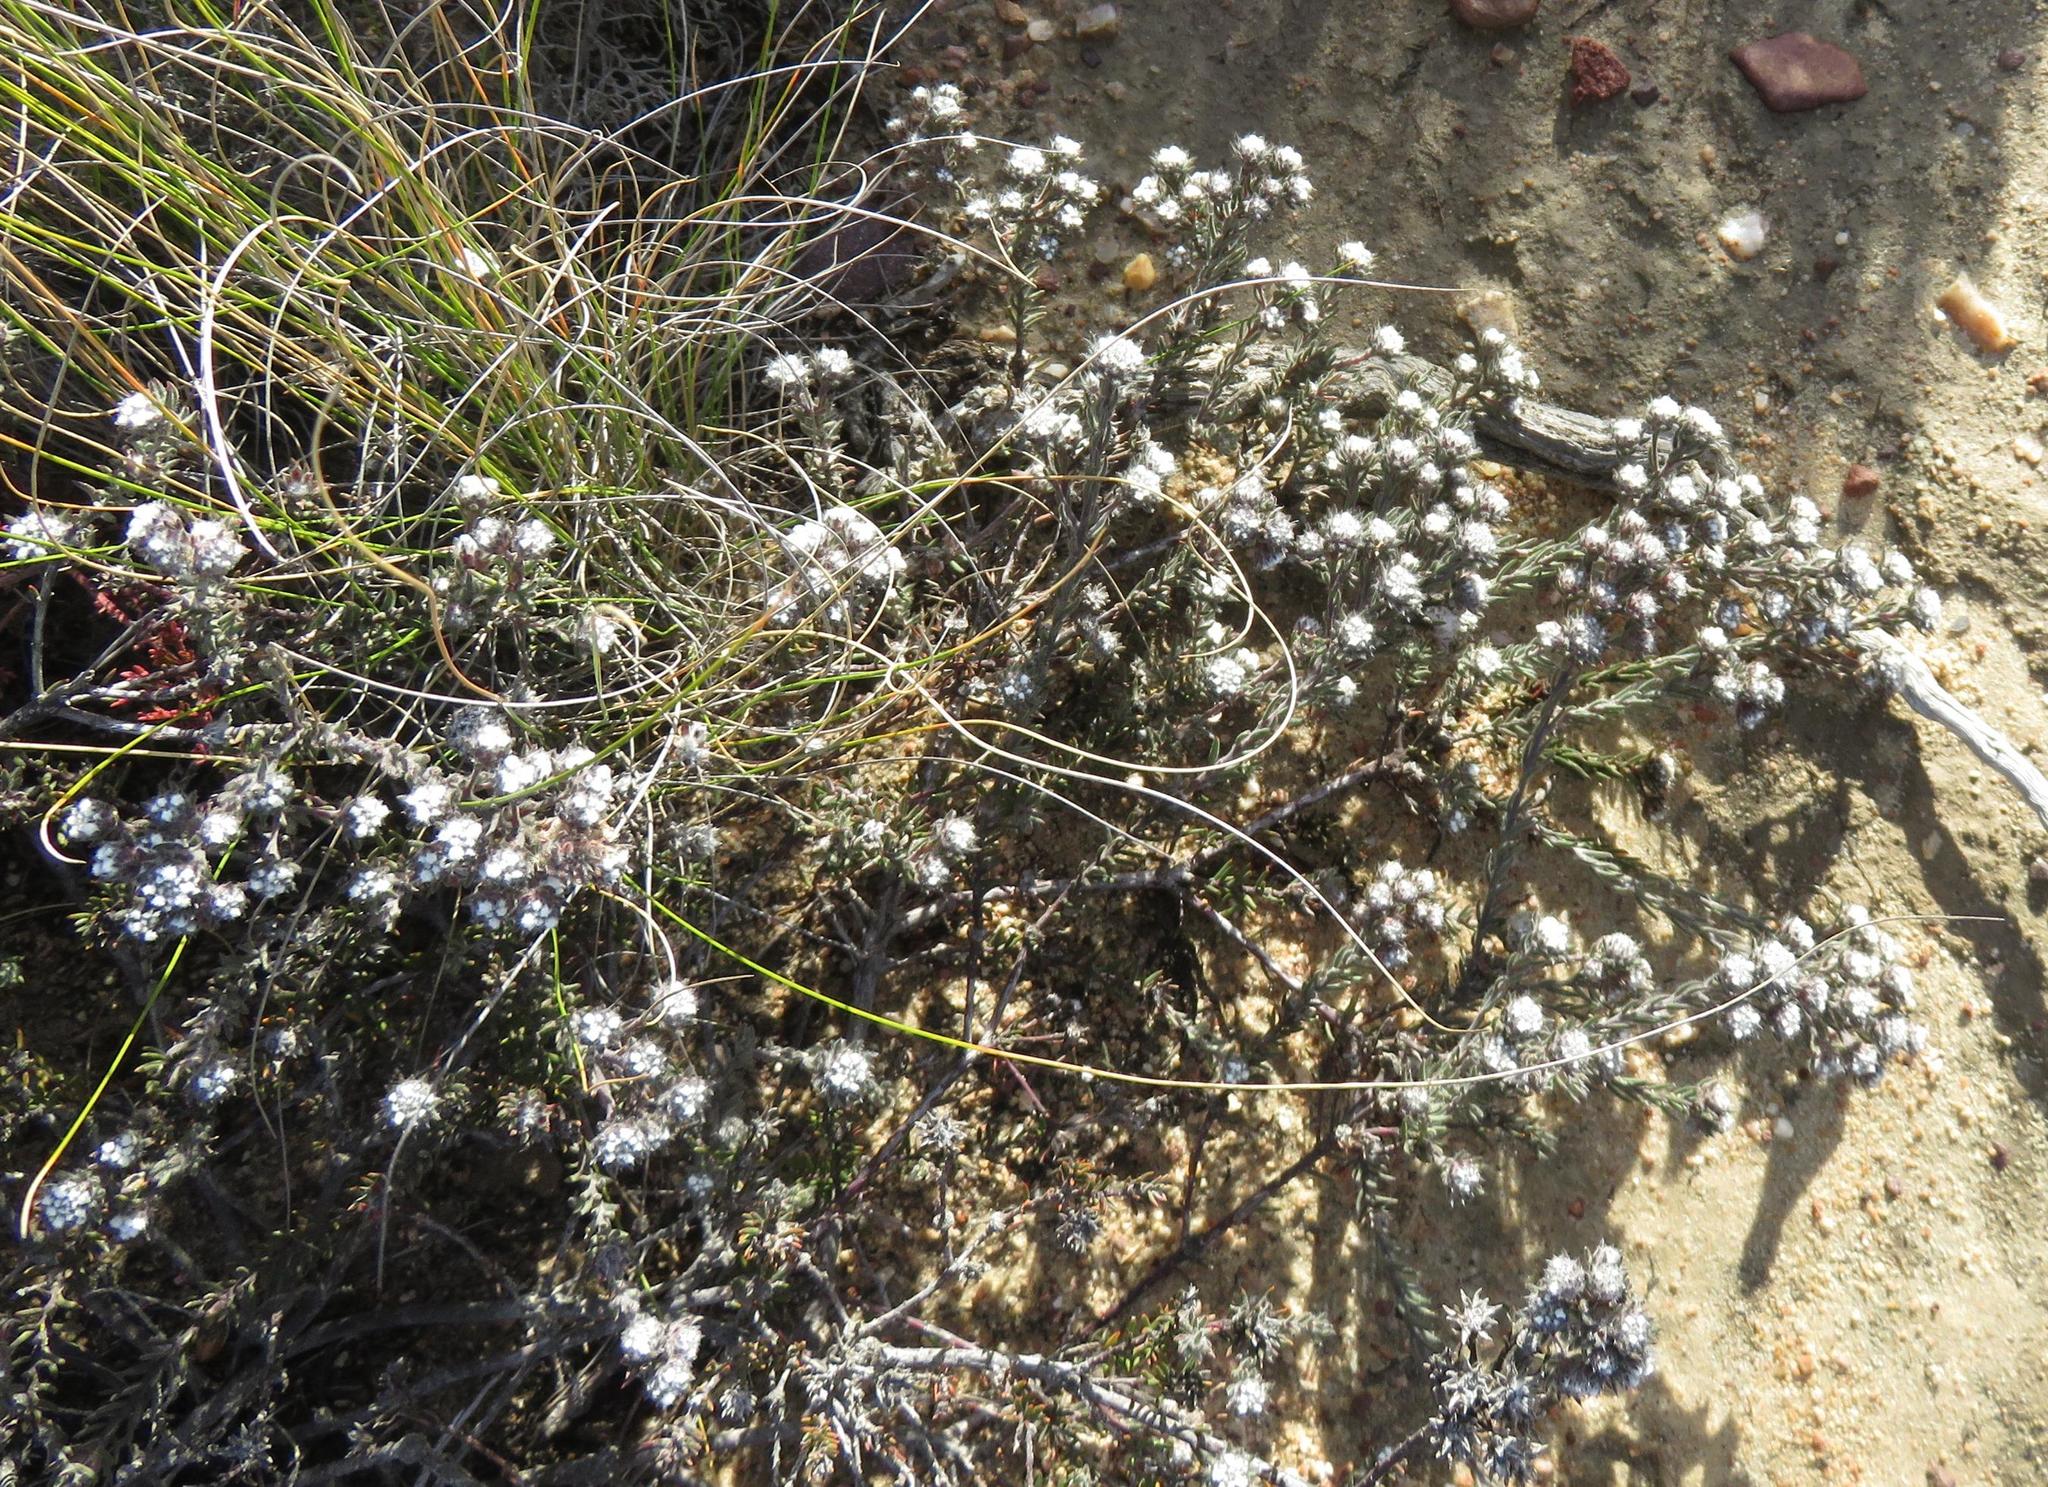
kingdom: Plantae
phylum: Tracheophyta
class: Magnoliopsida
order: Proteales
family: Proteaceae
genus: Vexatorella
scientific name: Vexatorella obtusata
